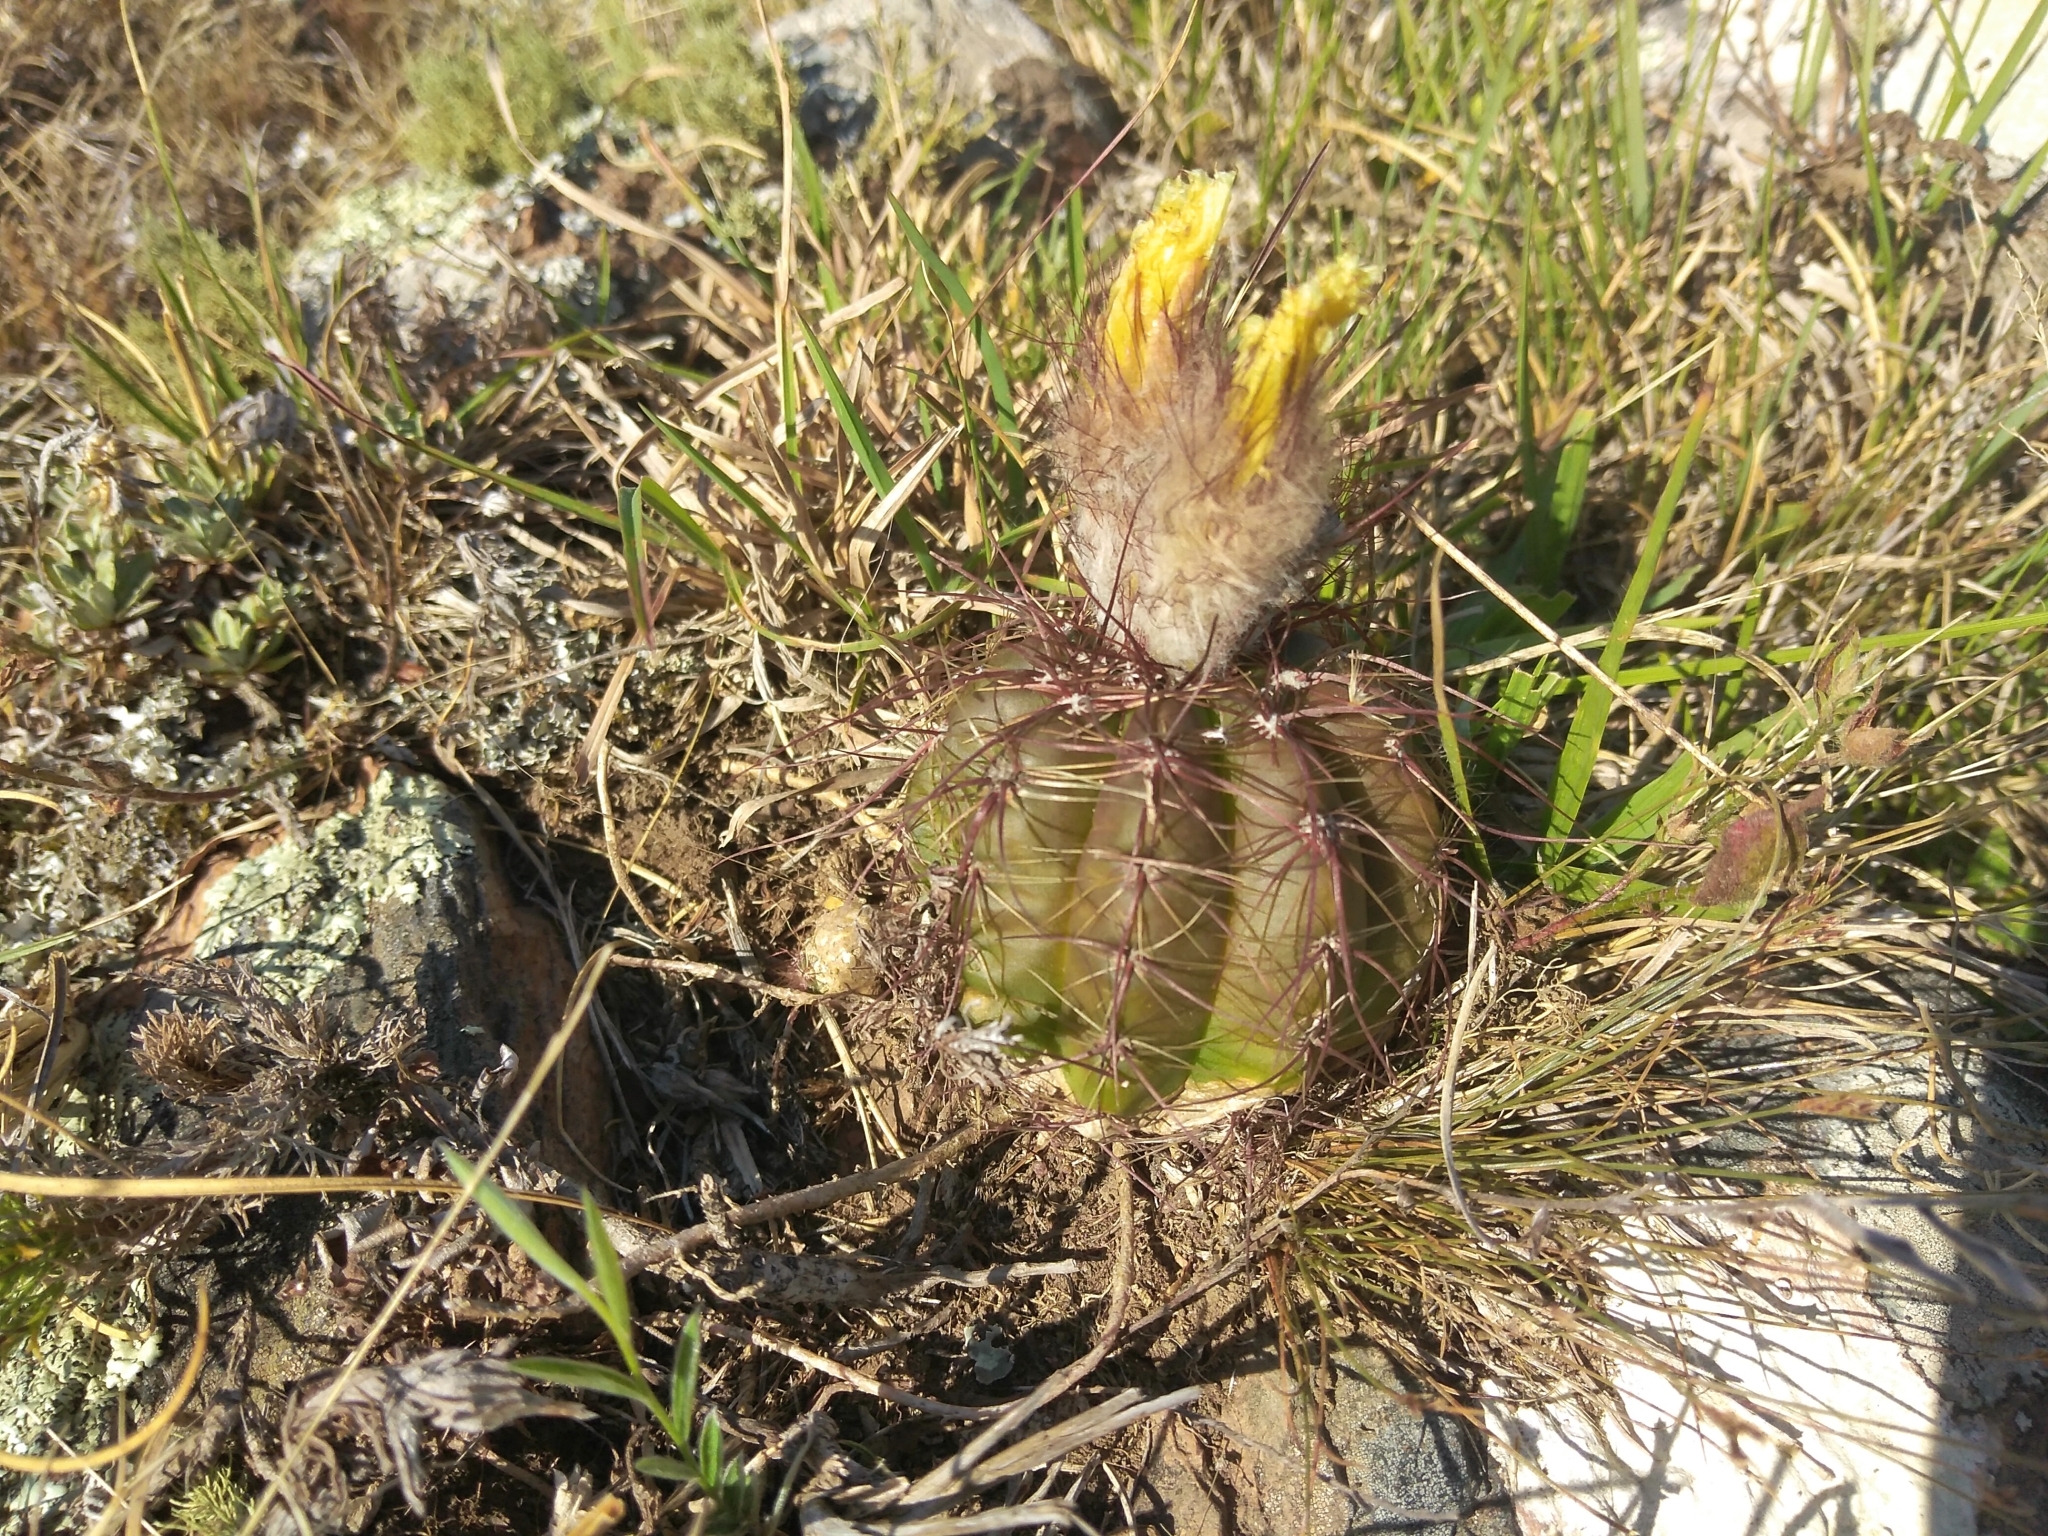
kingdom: Plantae
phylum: Tracheophyta
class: Magnoliopsida
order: Caryophyllales
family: Cactaceae
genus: Parodia
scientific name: Parodia ottonis
